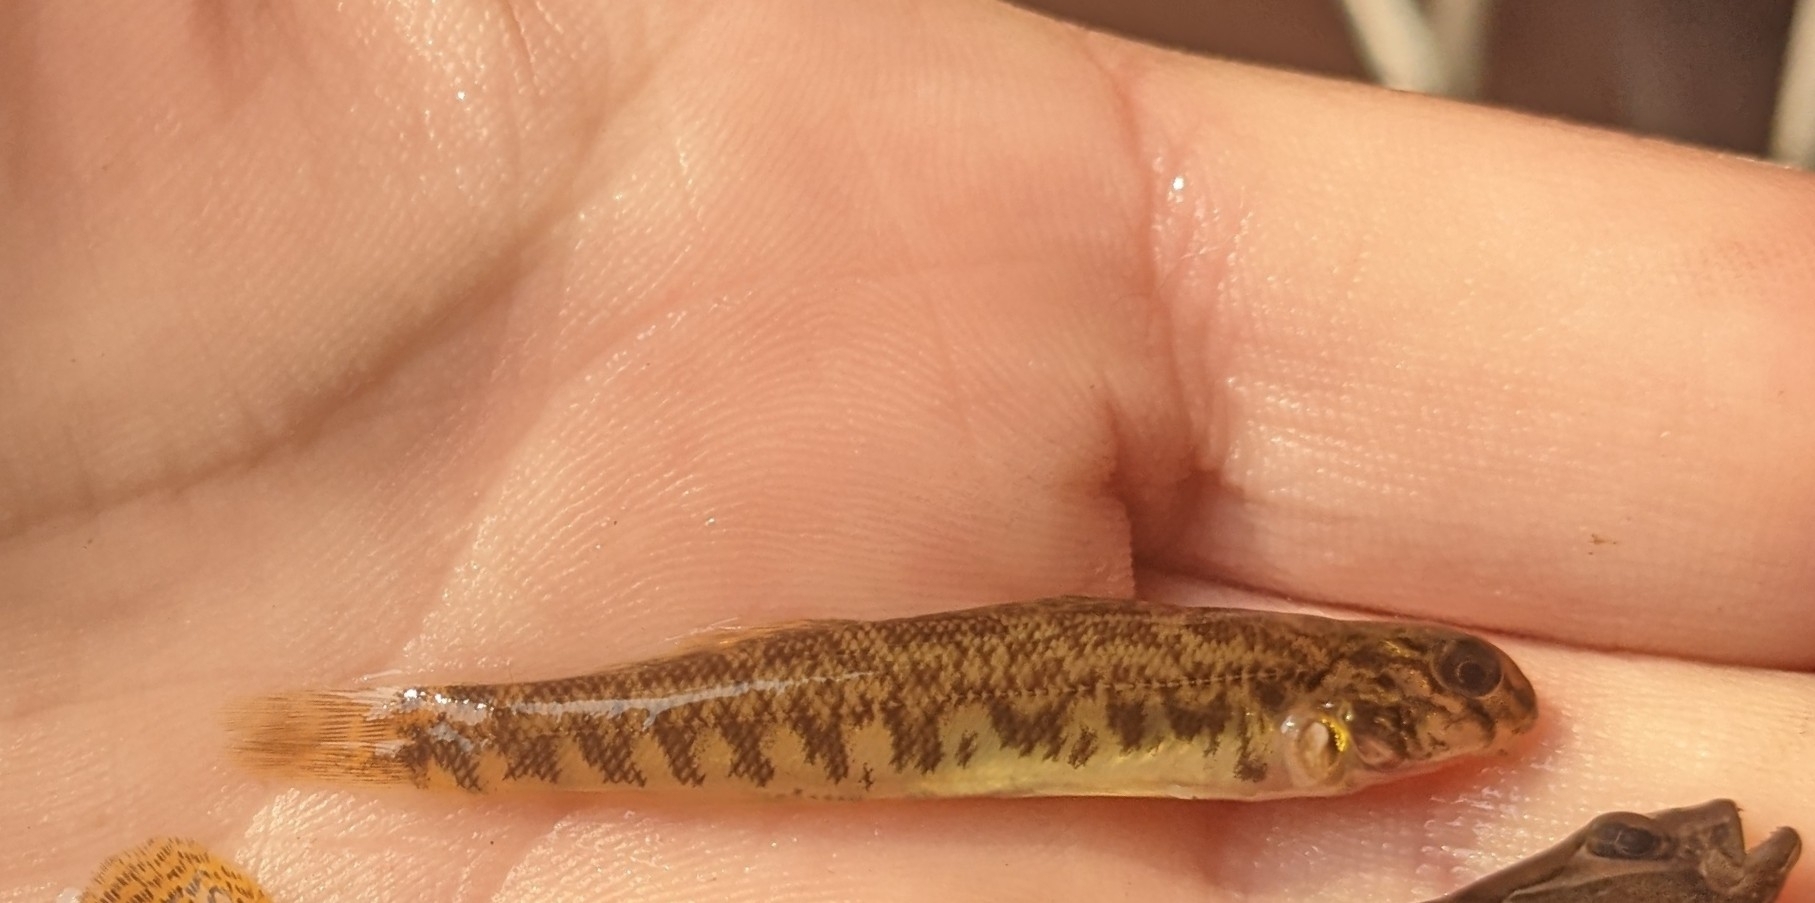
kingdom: Animalia
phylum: Chordata
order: Perciformes
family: Percidae
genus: Etheostoma
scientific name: Etheostoma blennioides
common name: Greenside darter
